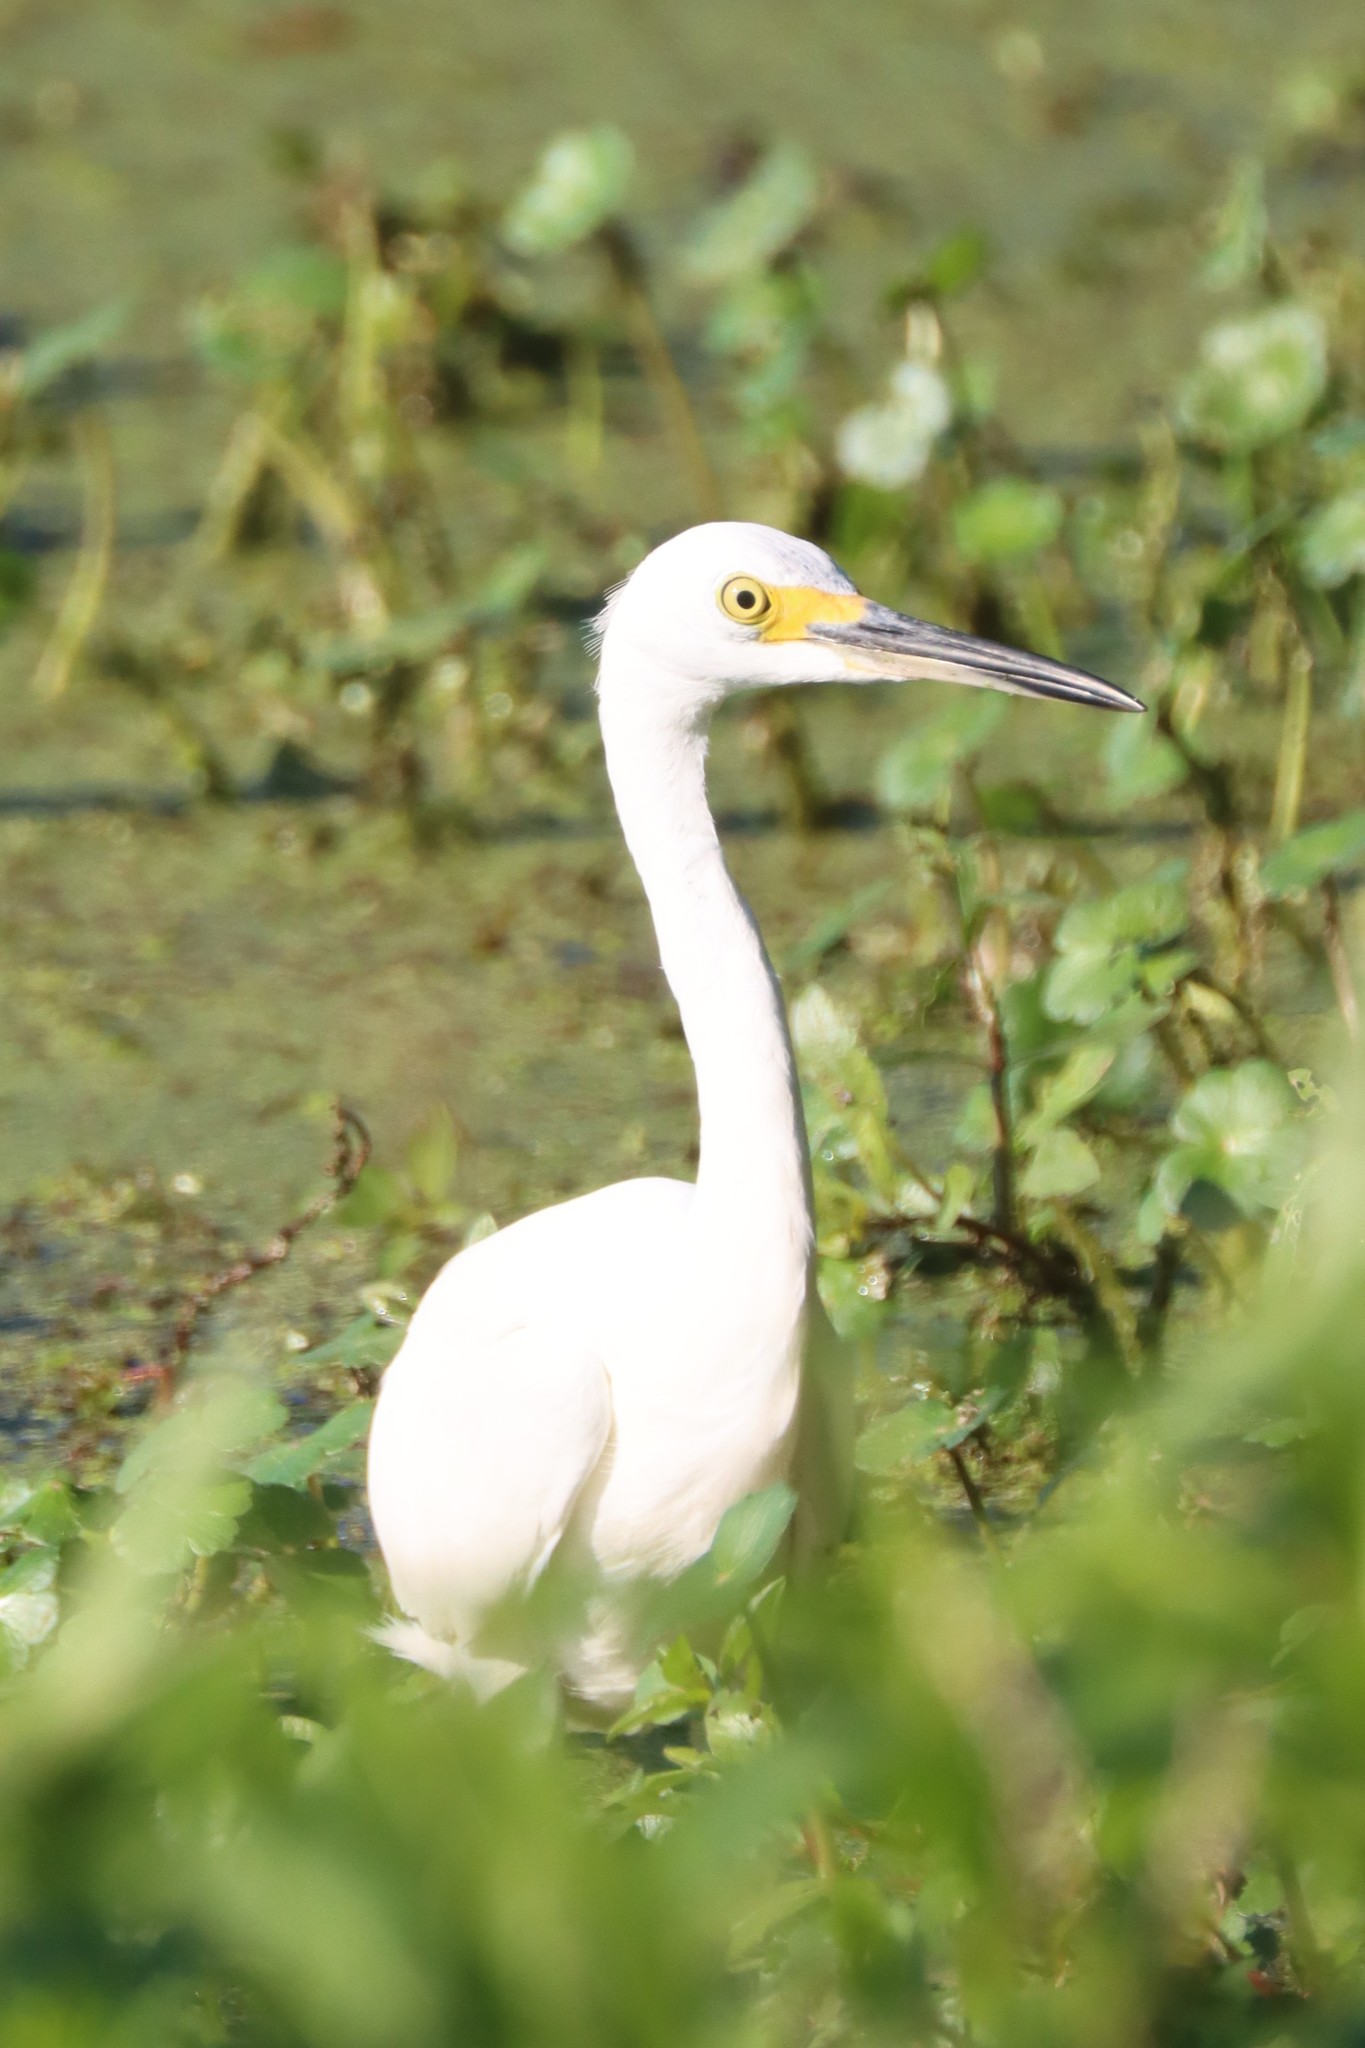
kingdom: Animalia
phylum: Chordata
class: Aves
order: Pelecaniformes
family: Ardeidae
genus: Egretta
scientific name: Egretta thula
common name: Snowy egret
